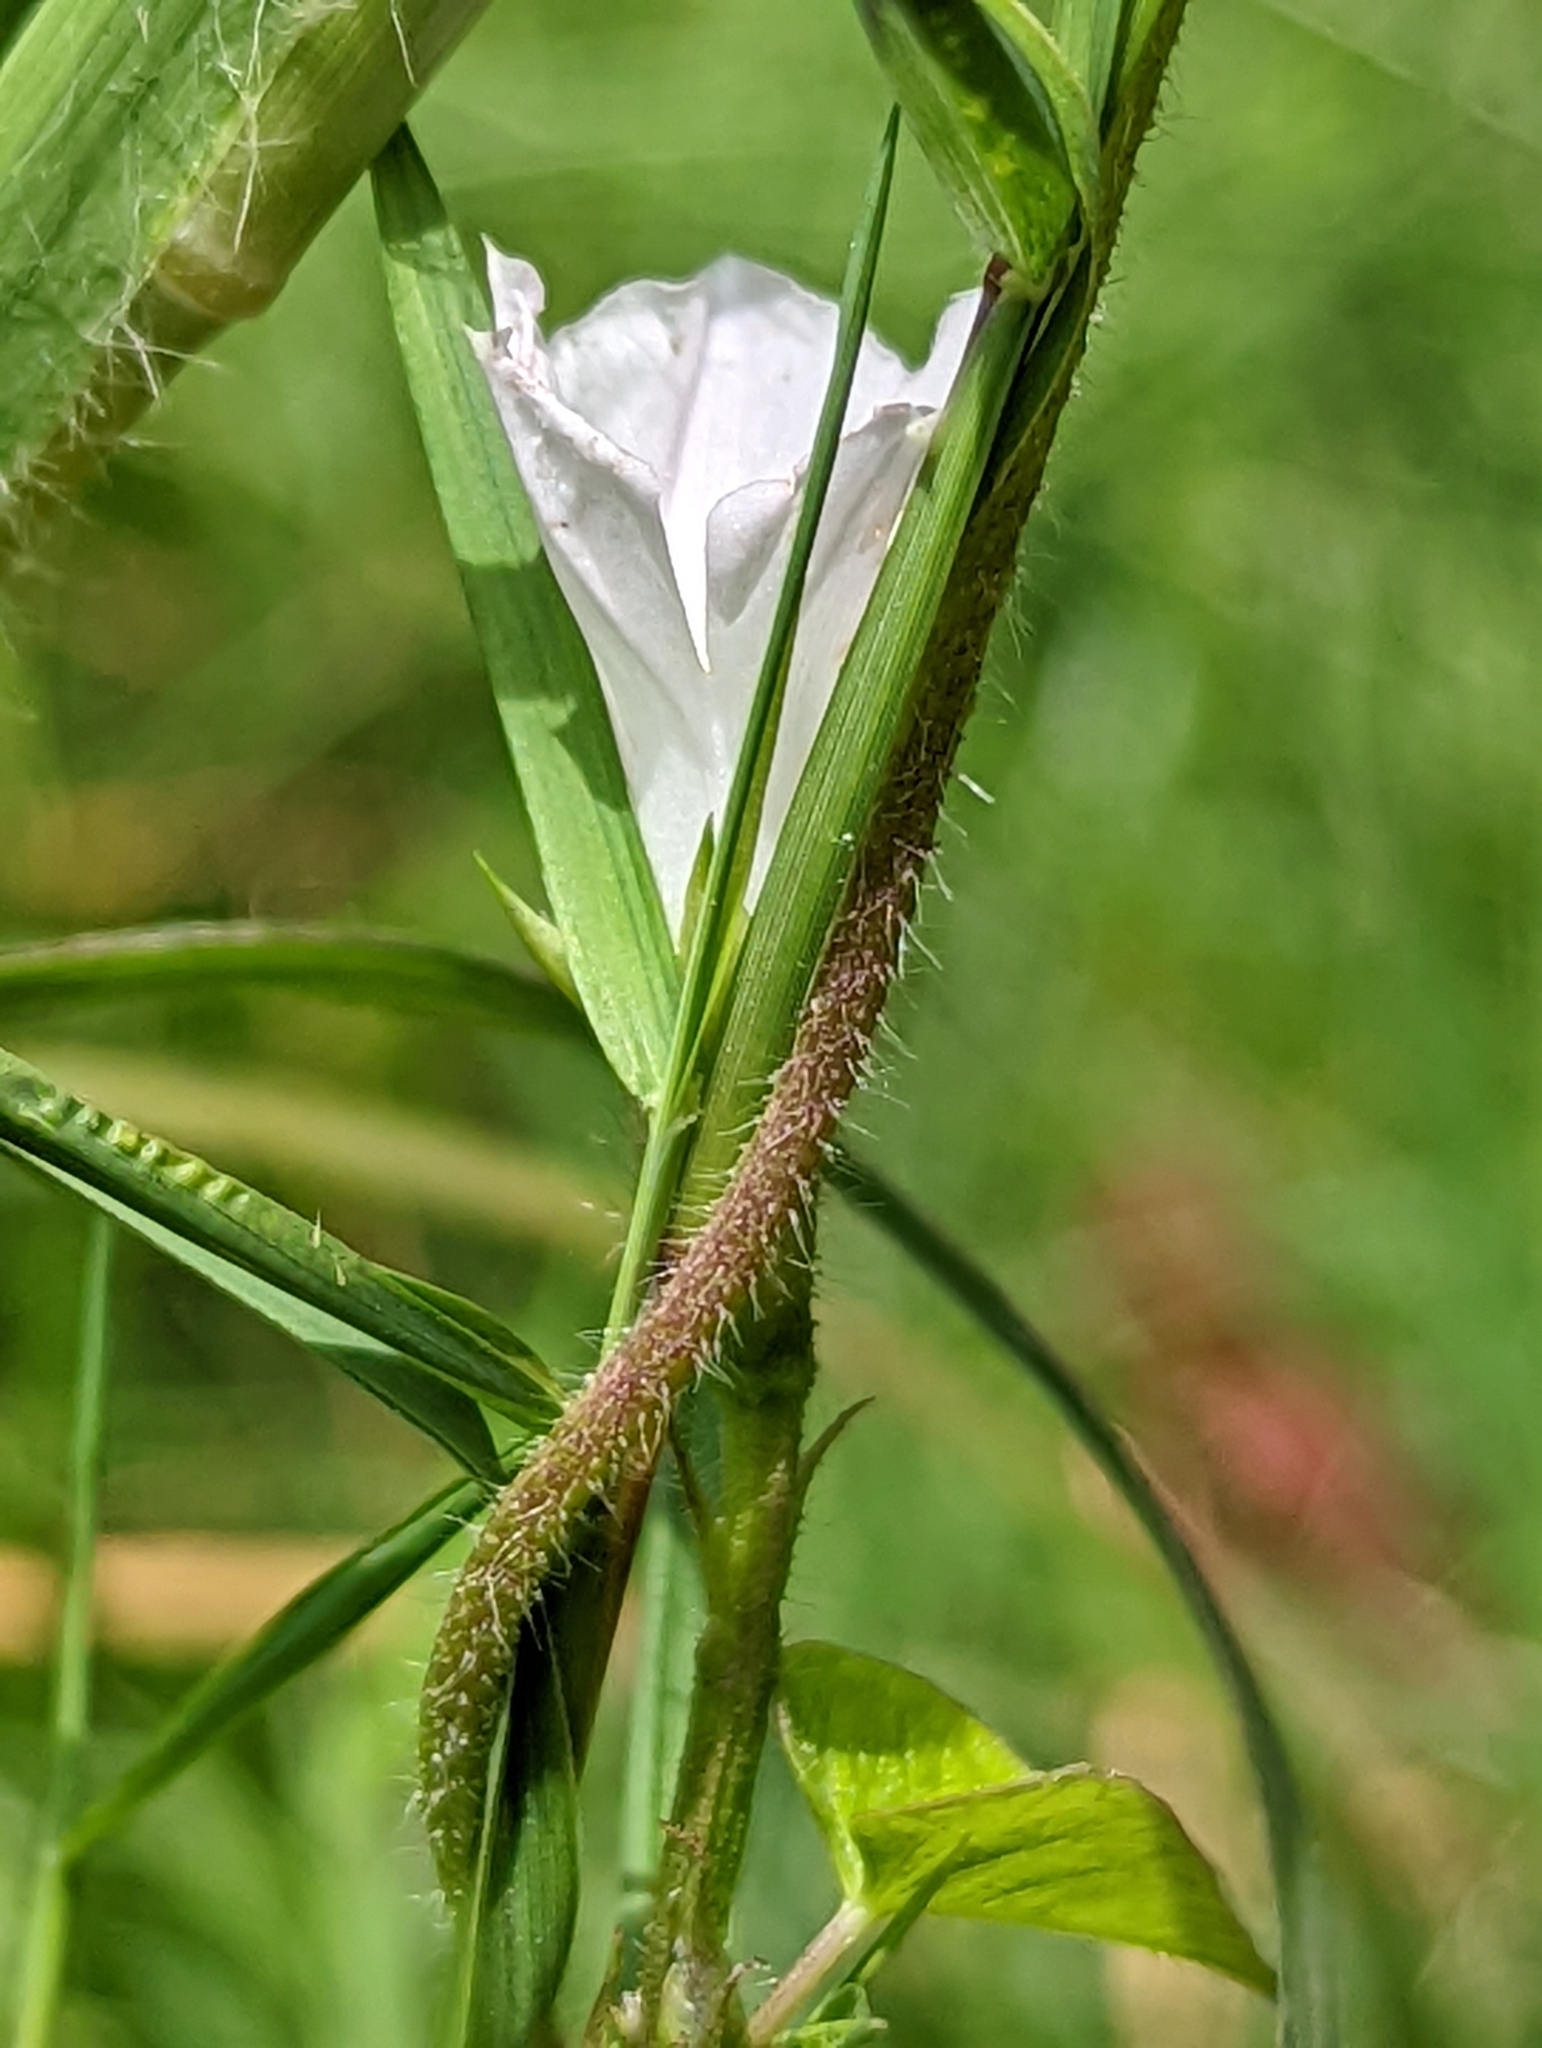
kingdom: Plantae
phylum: Tracheophyta
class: Magnoliopsida
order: Solanales
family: Convolvulaceae
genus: Ipomoea
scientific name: Ipomoea lacunosa
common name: White morning-glory
